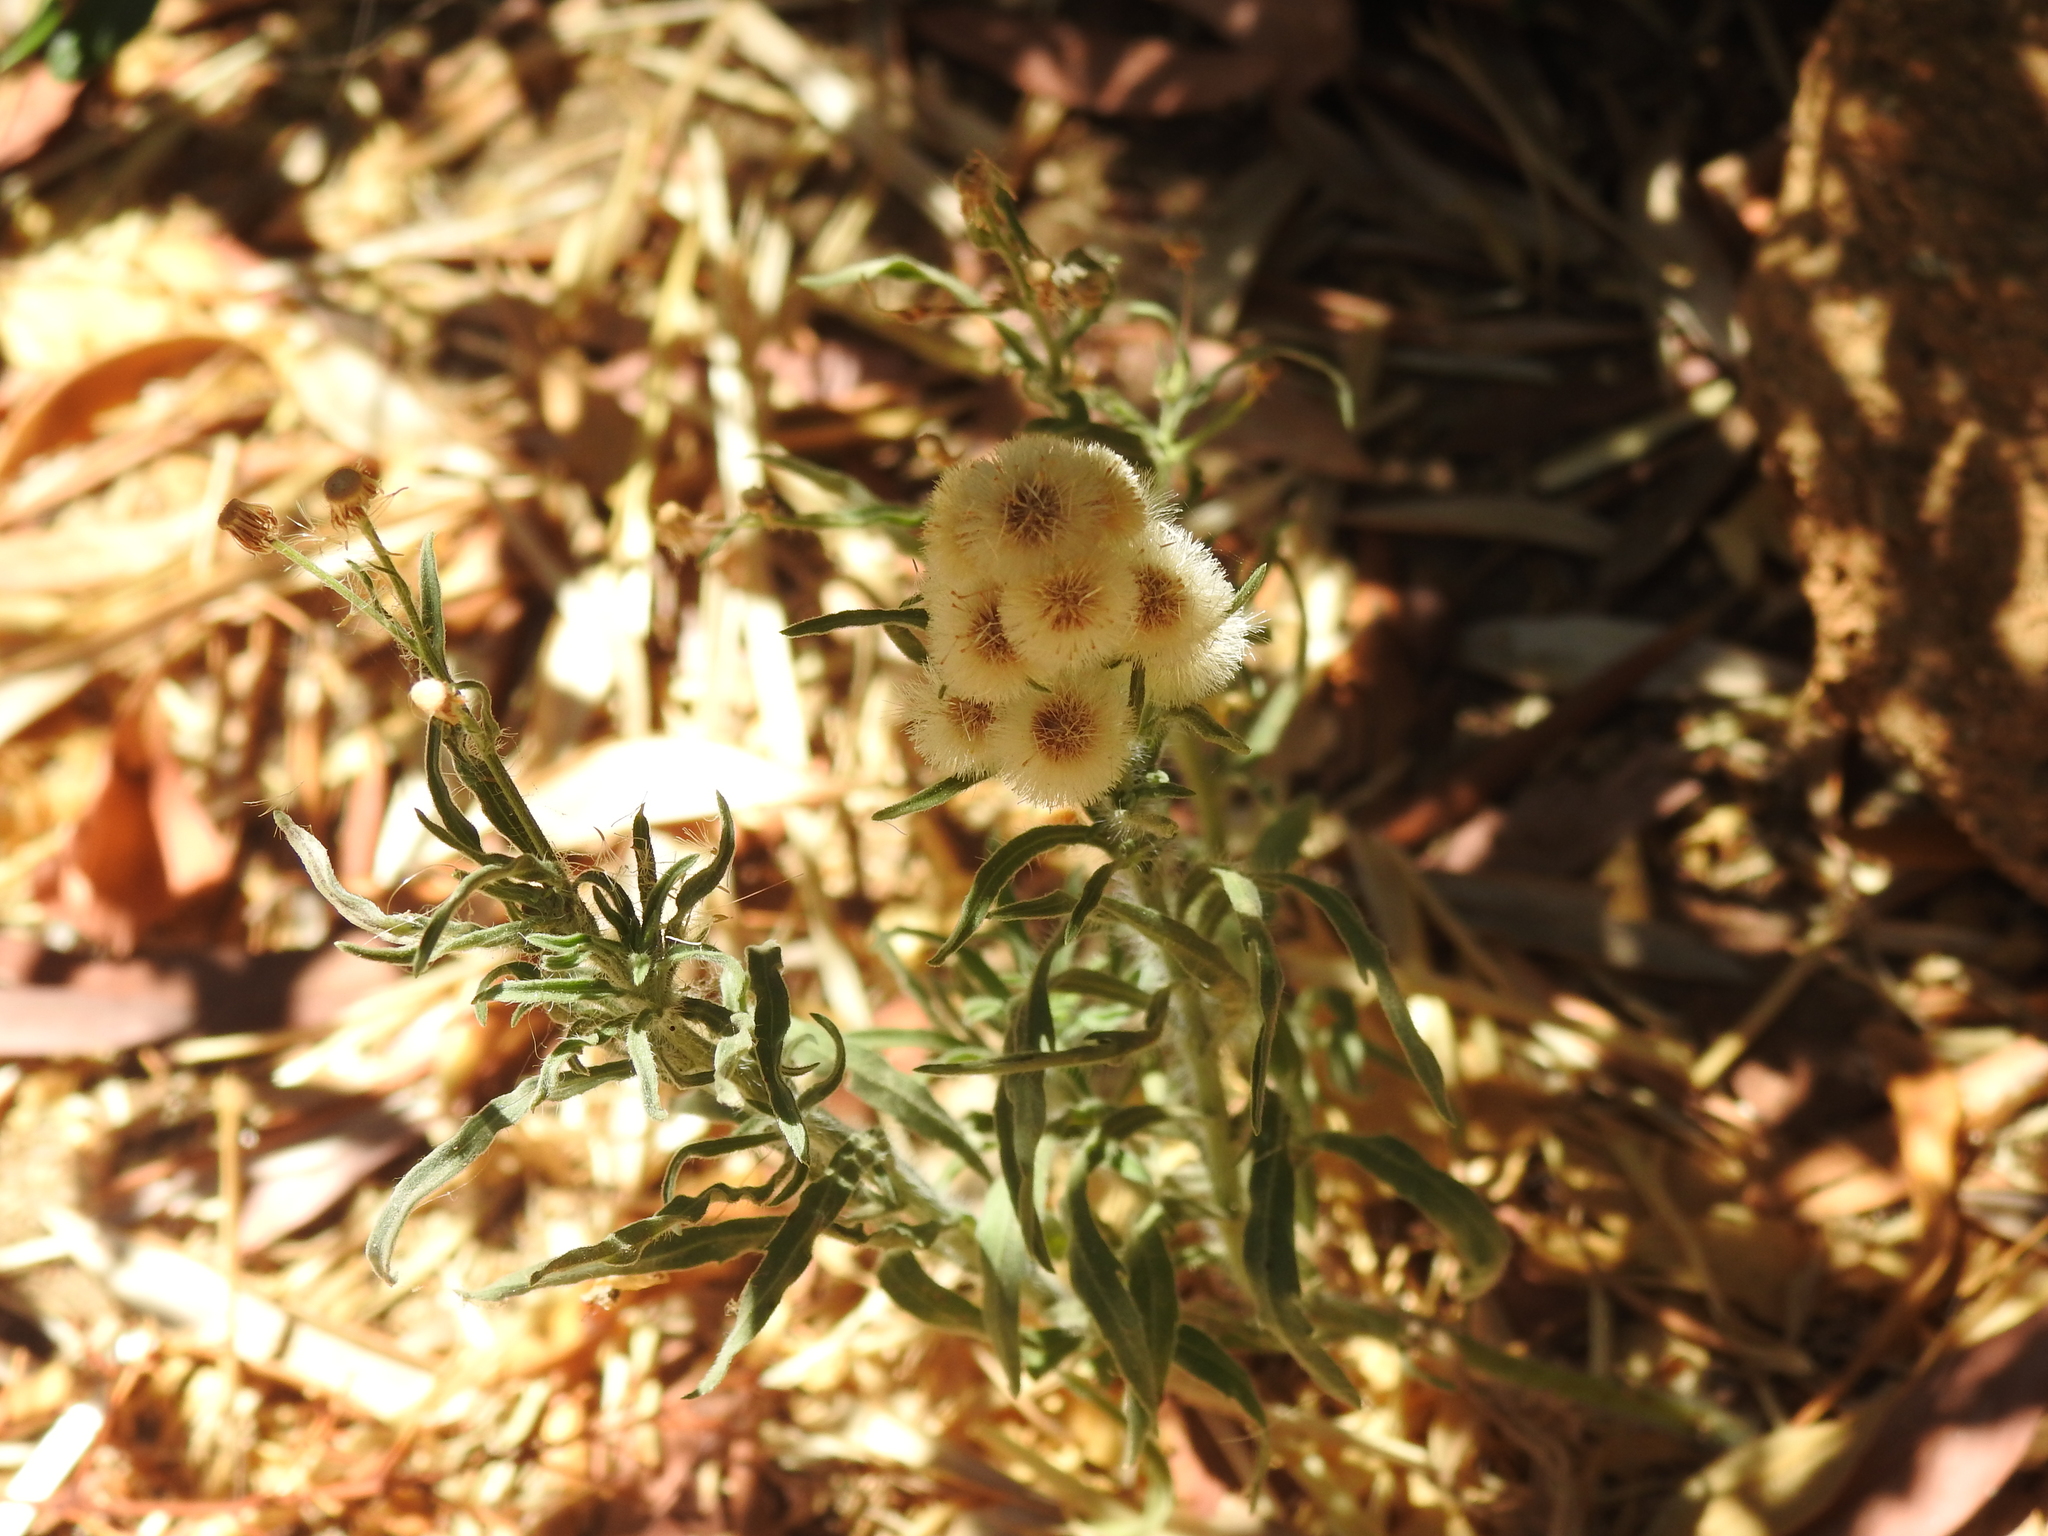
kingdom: Plantae
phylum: Tracheophyta
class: Magnoliopsida
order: Asterales
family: Asteraceae
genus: Erigeron
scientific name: Erigeron bonariensis
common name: Argentine fleabane
